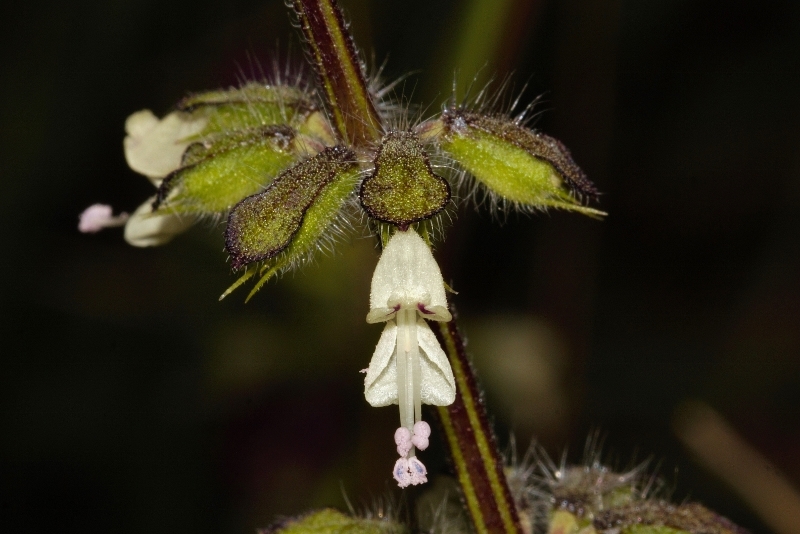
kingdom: Plantae
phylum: Tracheophyta
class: Magnoliopsida
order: Lamiales
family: Lamiaceae
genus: Syncolostemon
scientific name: Syncolostemon bracteosus
